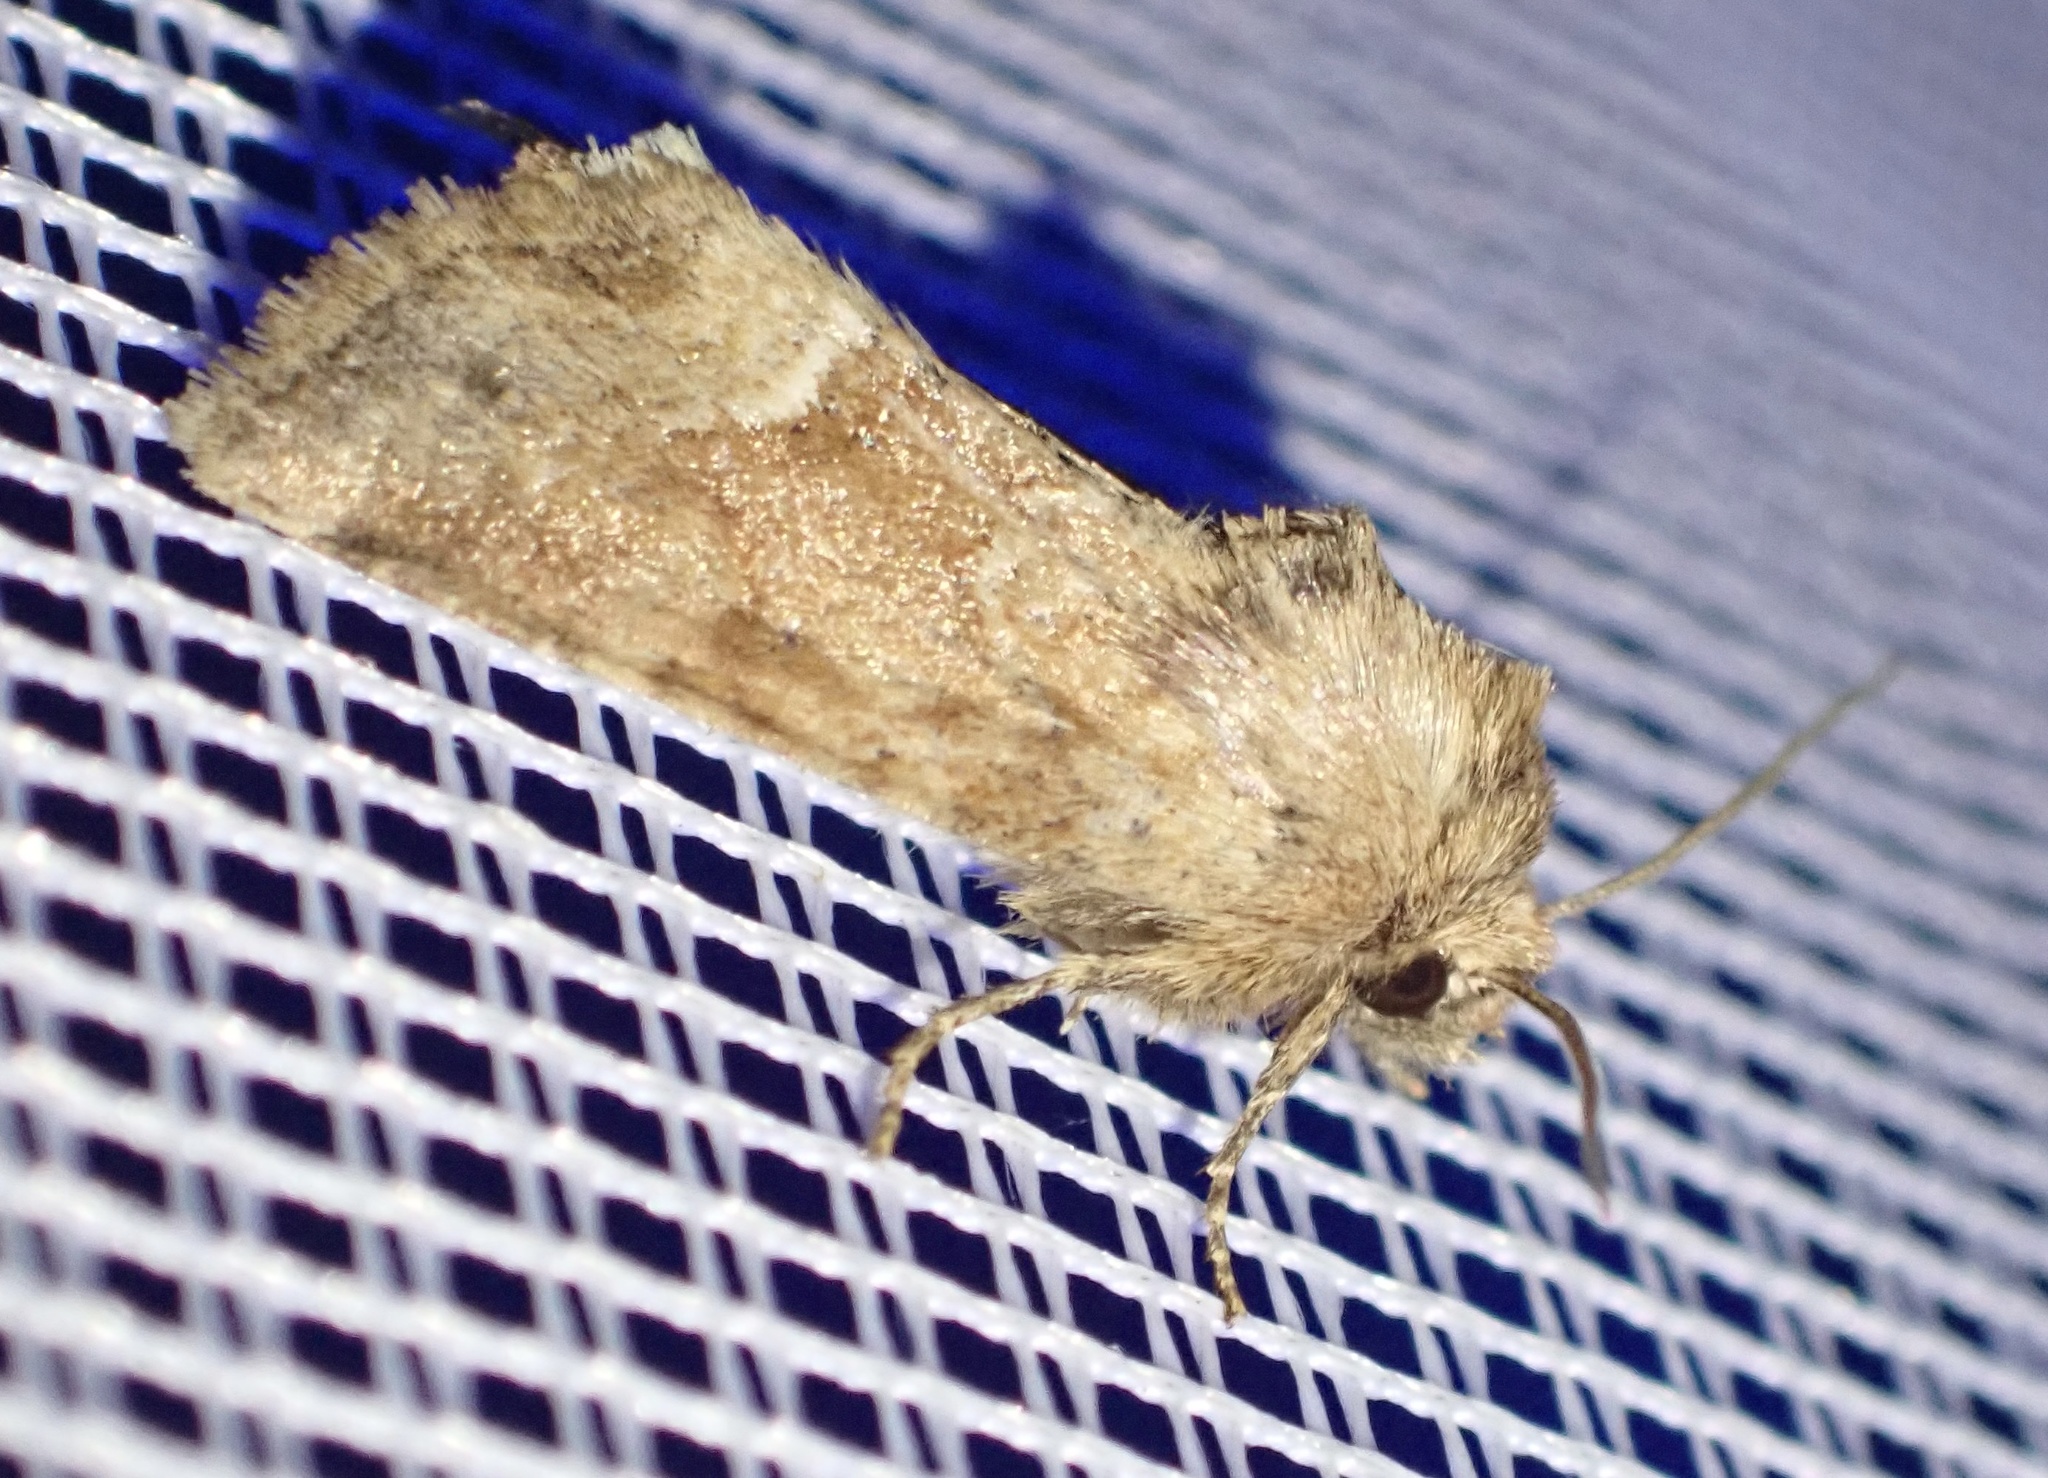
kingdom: Animalia
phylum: Arthropoda
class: Insecta
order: Lepidoptera
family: Noctuidae
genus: Oligia
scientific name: Oligia fasciuncula
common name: Middle-barred minor
